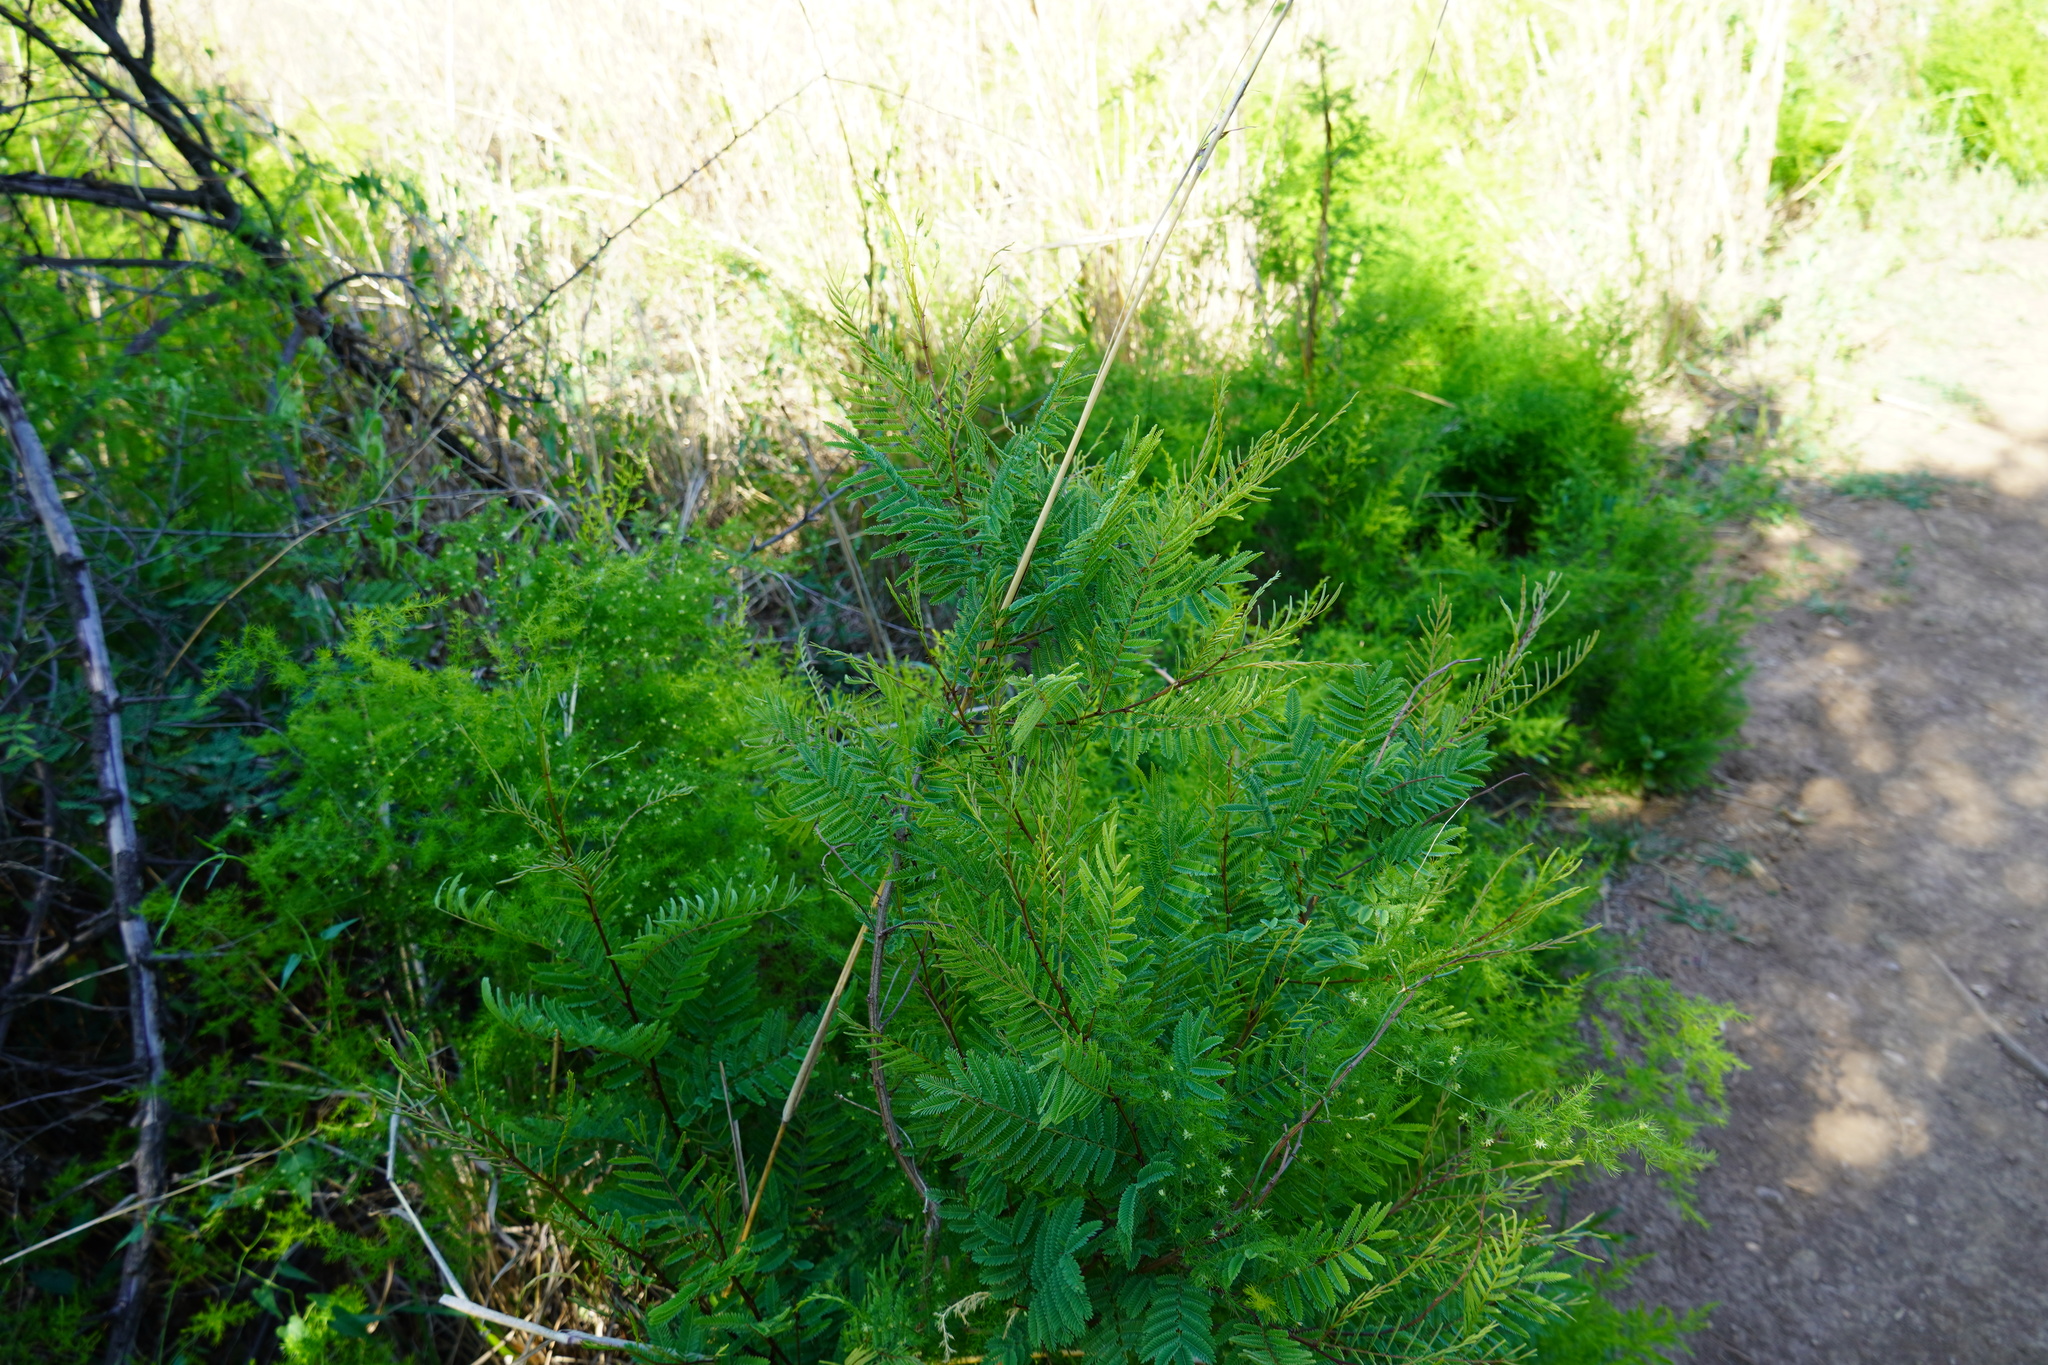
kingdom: Plantae
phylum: Tracheophyta
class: Magnoliopsida
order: Fabales
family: Fabaceae
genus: Senegalia
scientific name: Senegalia caffra
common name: Cat thorn
